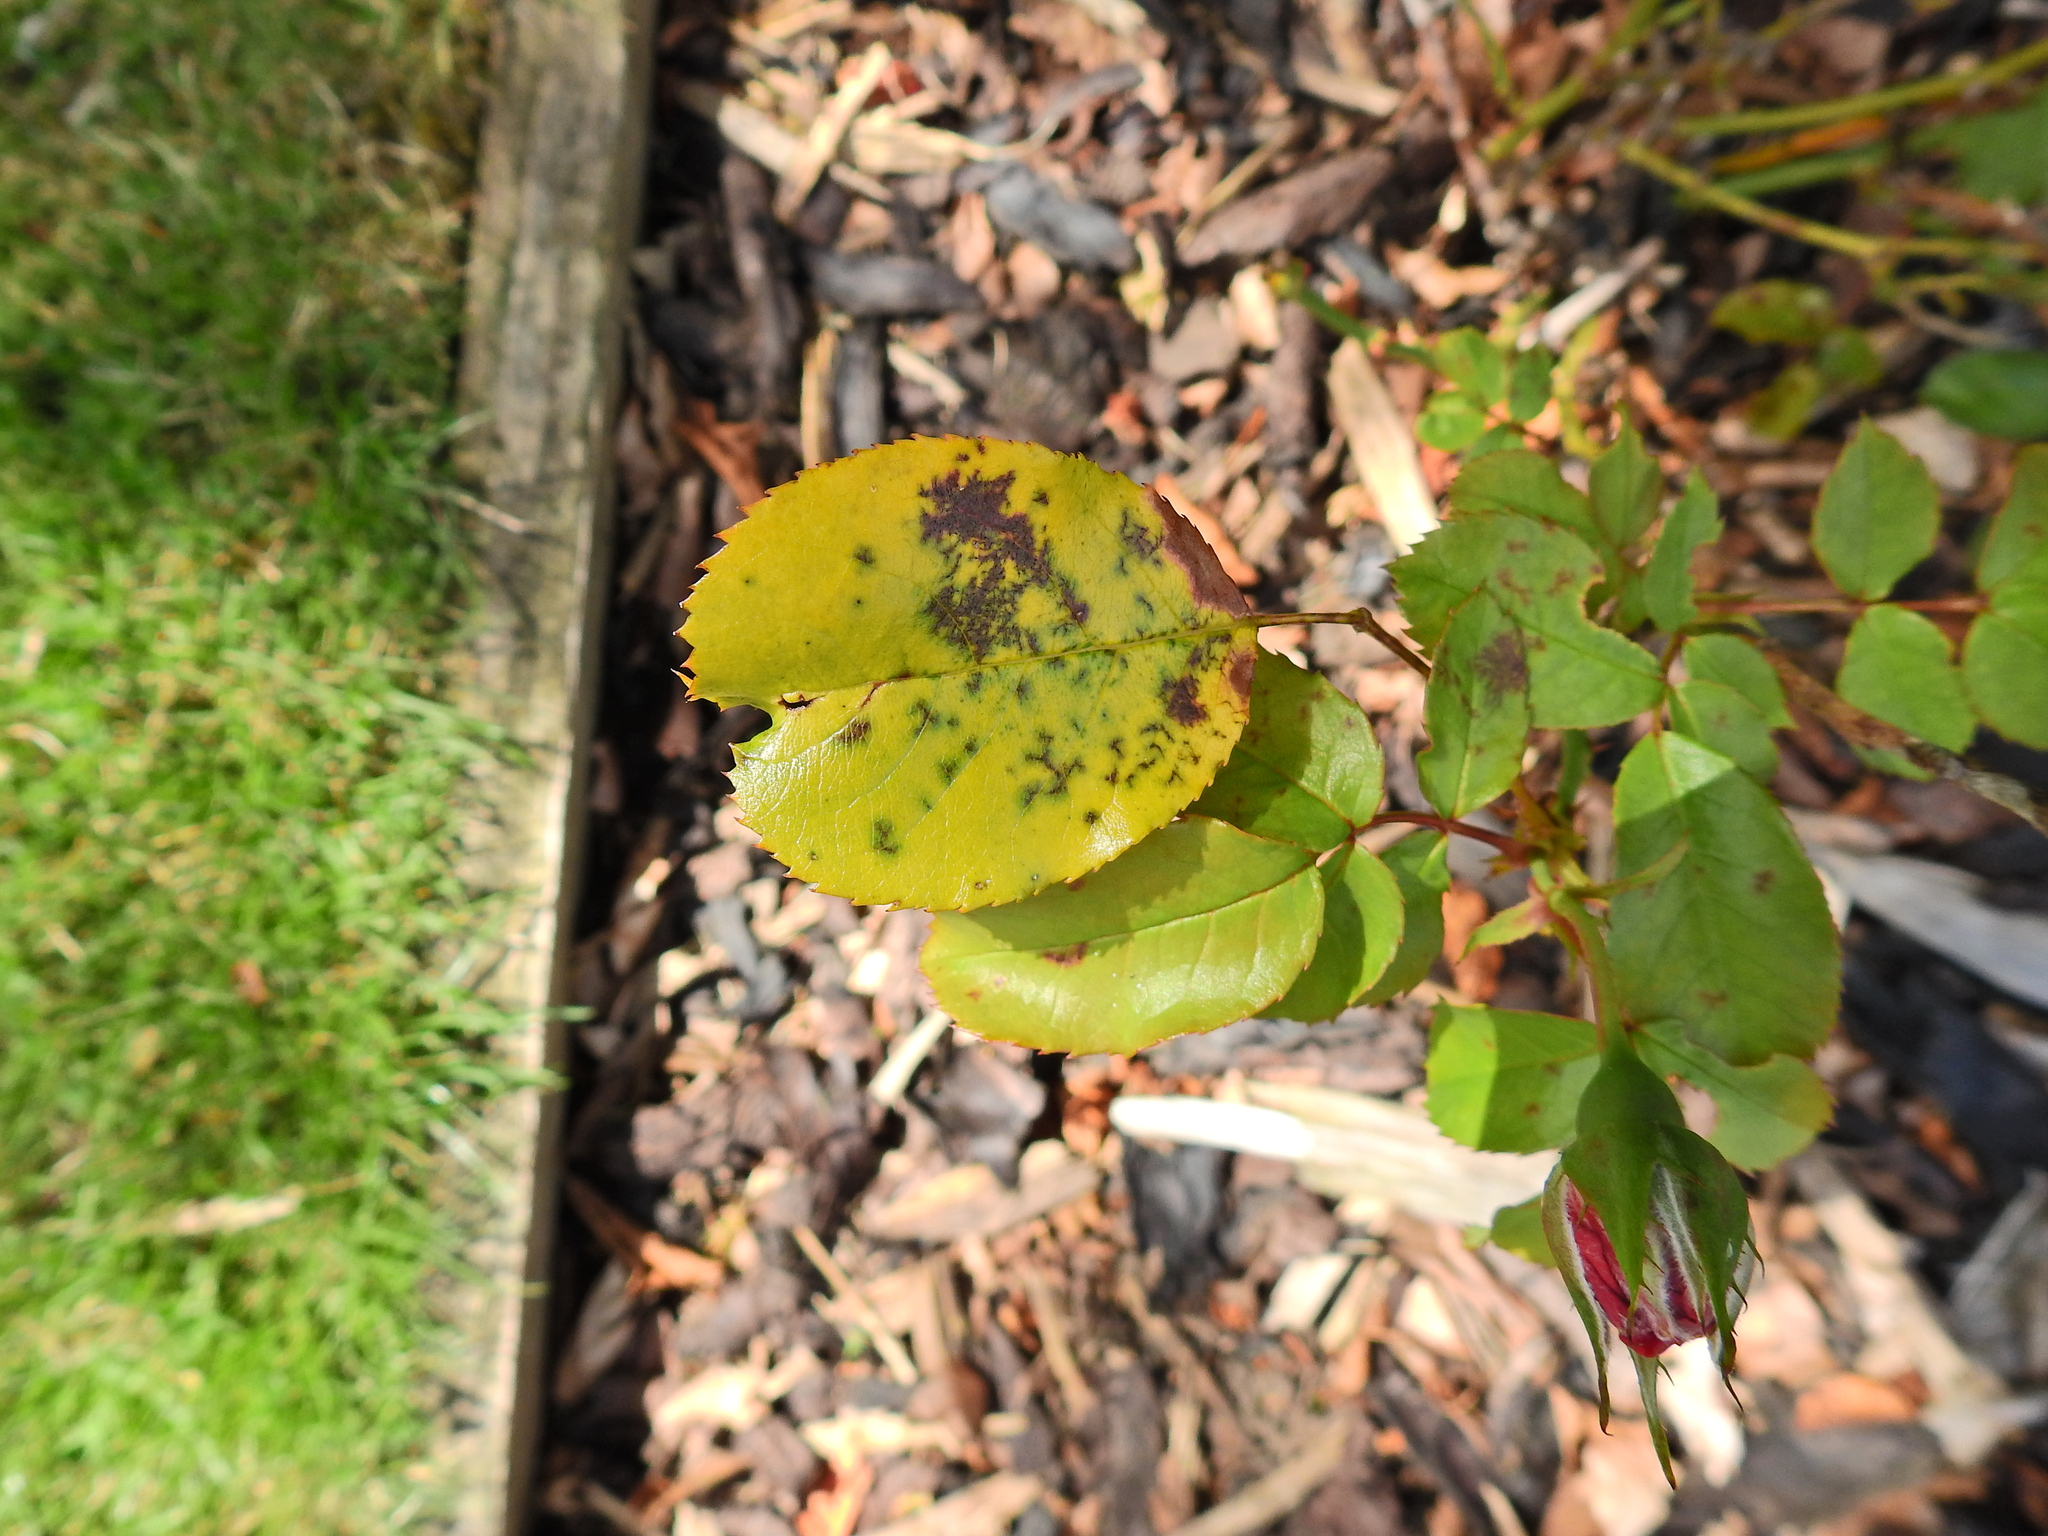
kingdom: Fungi
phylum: Ascomycota
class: Leotiomycetes
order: Helotiales
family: Drepanopezizaceae
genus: Diplocarpon
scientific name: Diplocarpon rosae
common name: Rose black-spot
